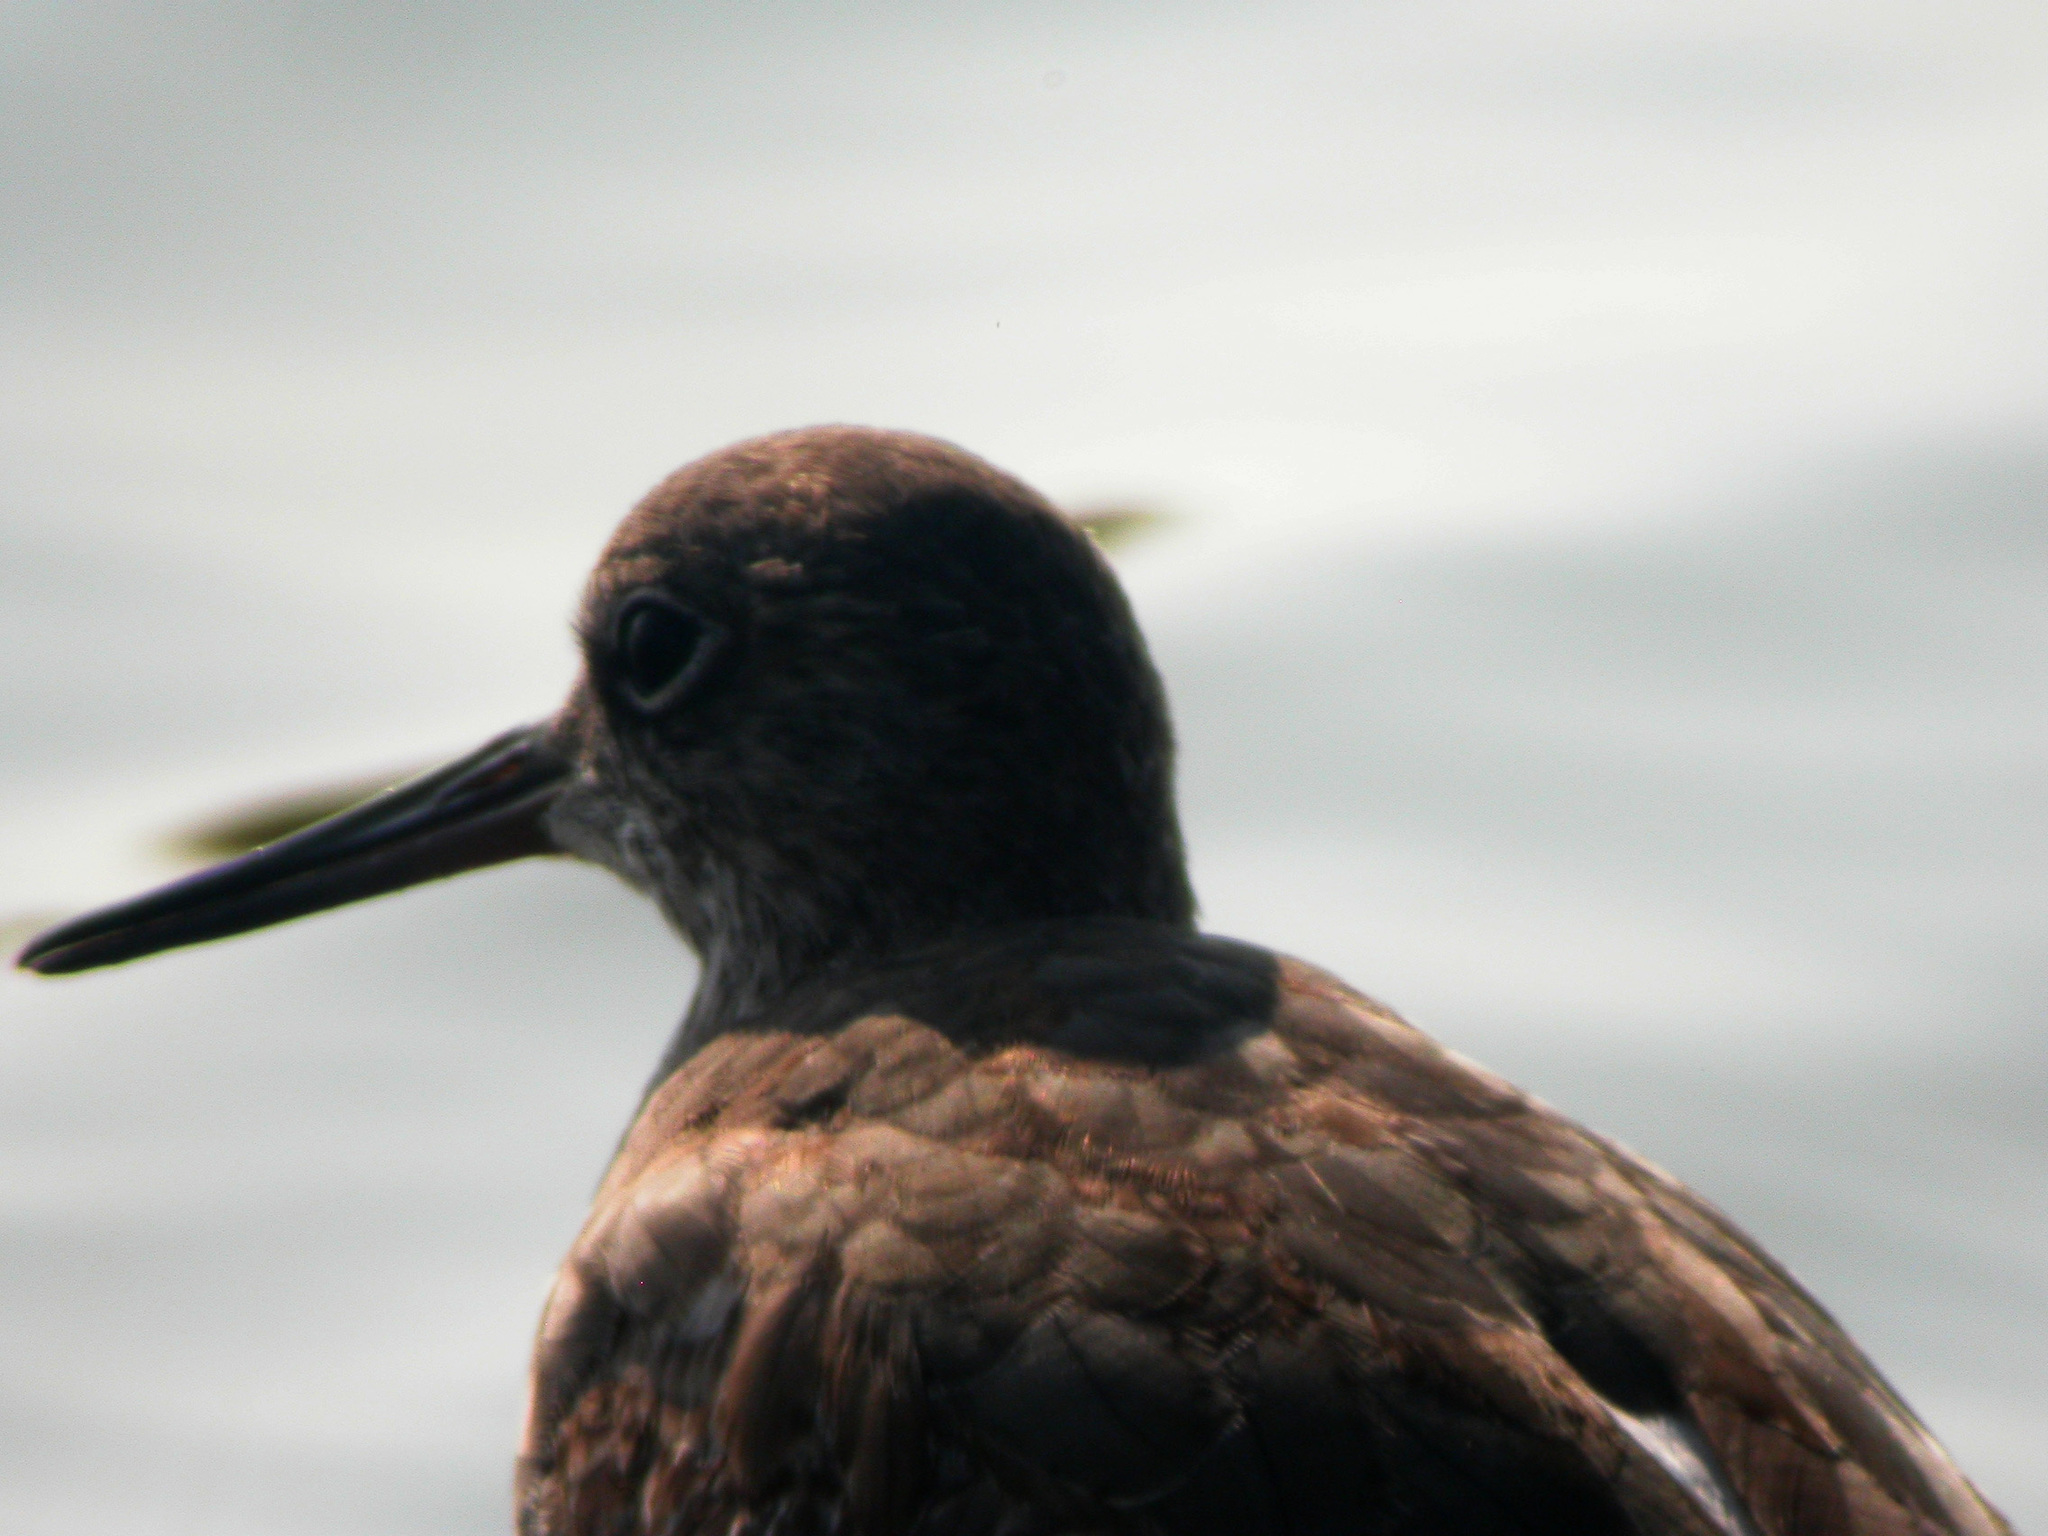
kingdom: Animalia
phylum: Chordata
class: Aves
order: Charadriiformes
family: Scolopacidae
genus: Tringa
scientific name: Tringa totanus
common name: Common redshank
